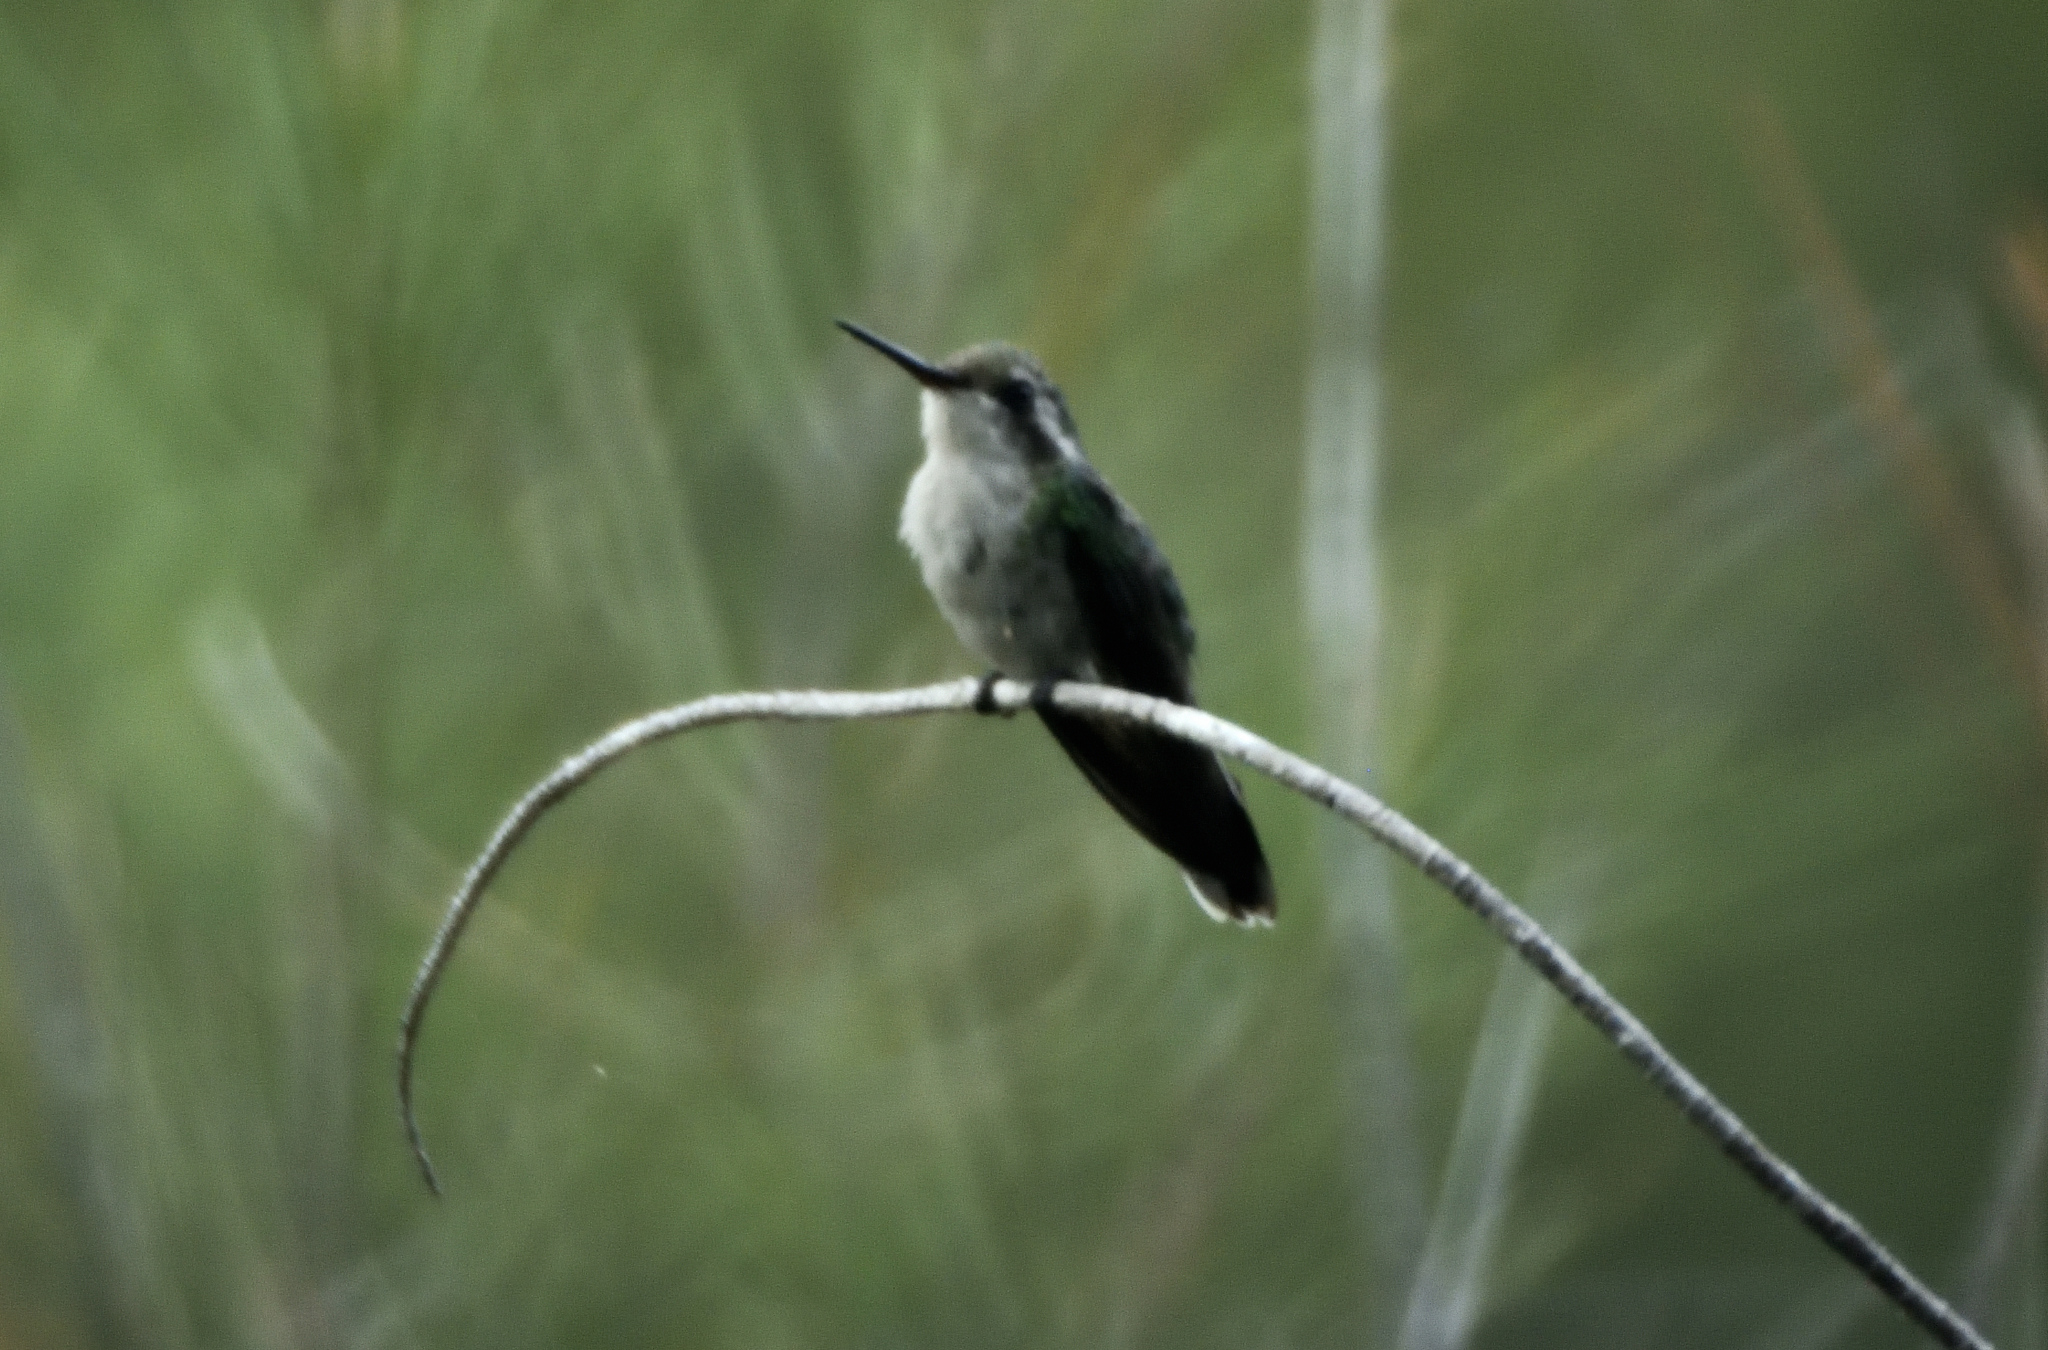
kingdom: Animalia
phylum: Chordata
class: Aves
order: Apodiformes
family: Trochilidae
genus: Cynanthus
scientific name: Cynanthus forficatus
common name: Cozumel emerald
